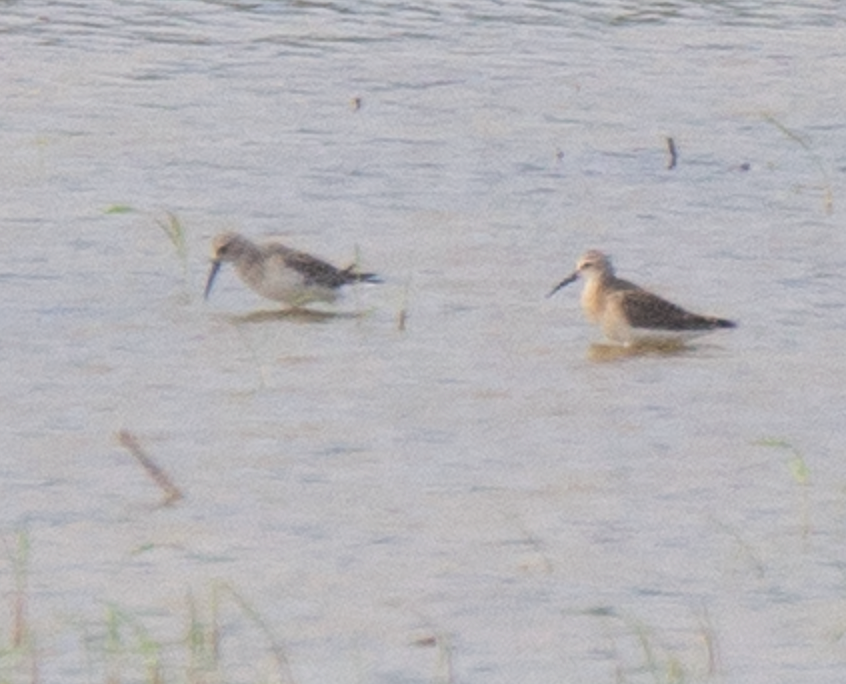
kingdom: Animalia
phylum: Chordata
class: Aves
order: Charadriiformes
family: Scolopacidae
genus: Calidris
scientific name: Calidris ferruginea
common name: Curlew sandpiper
